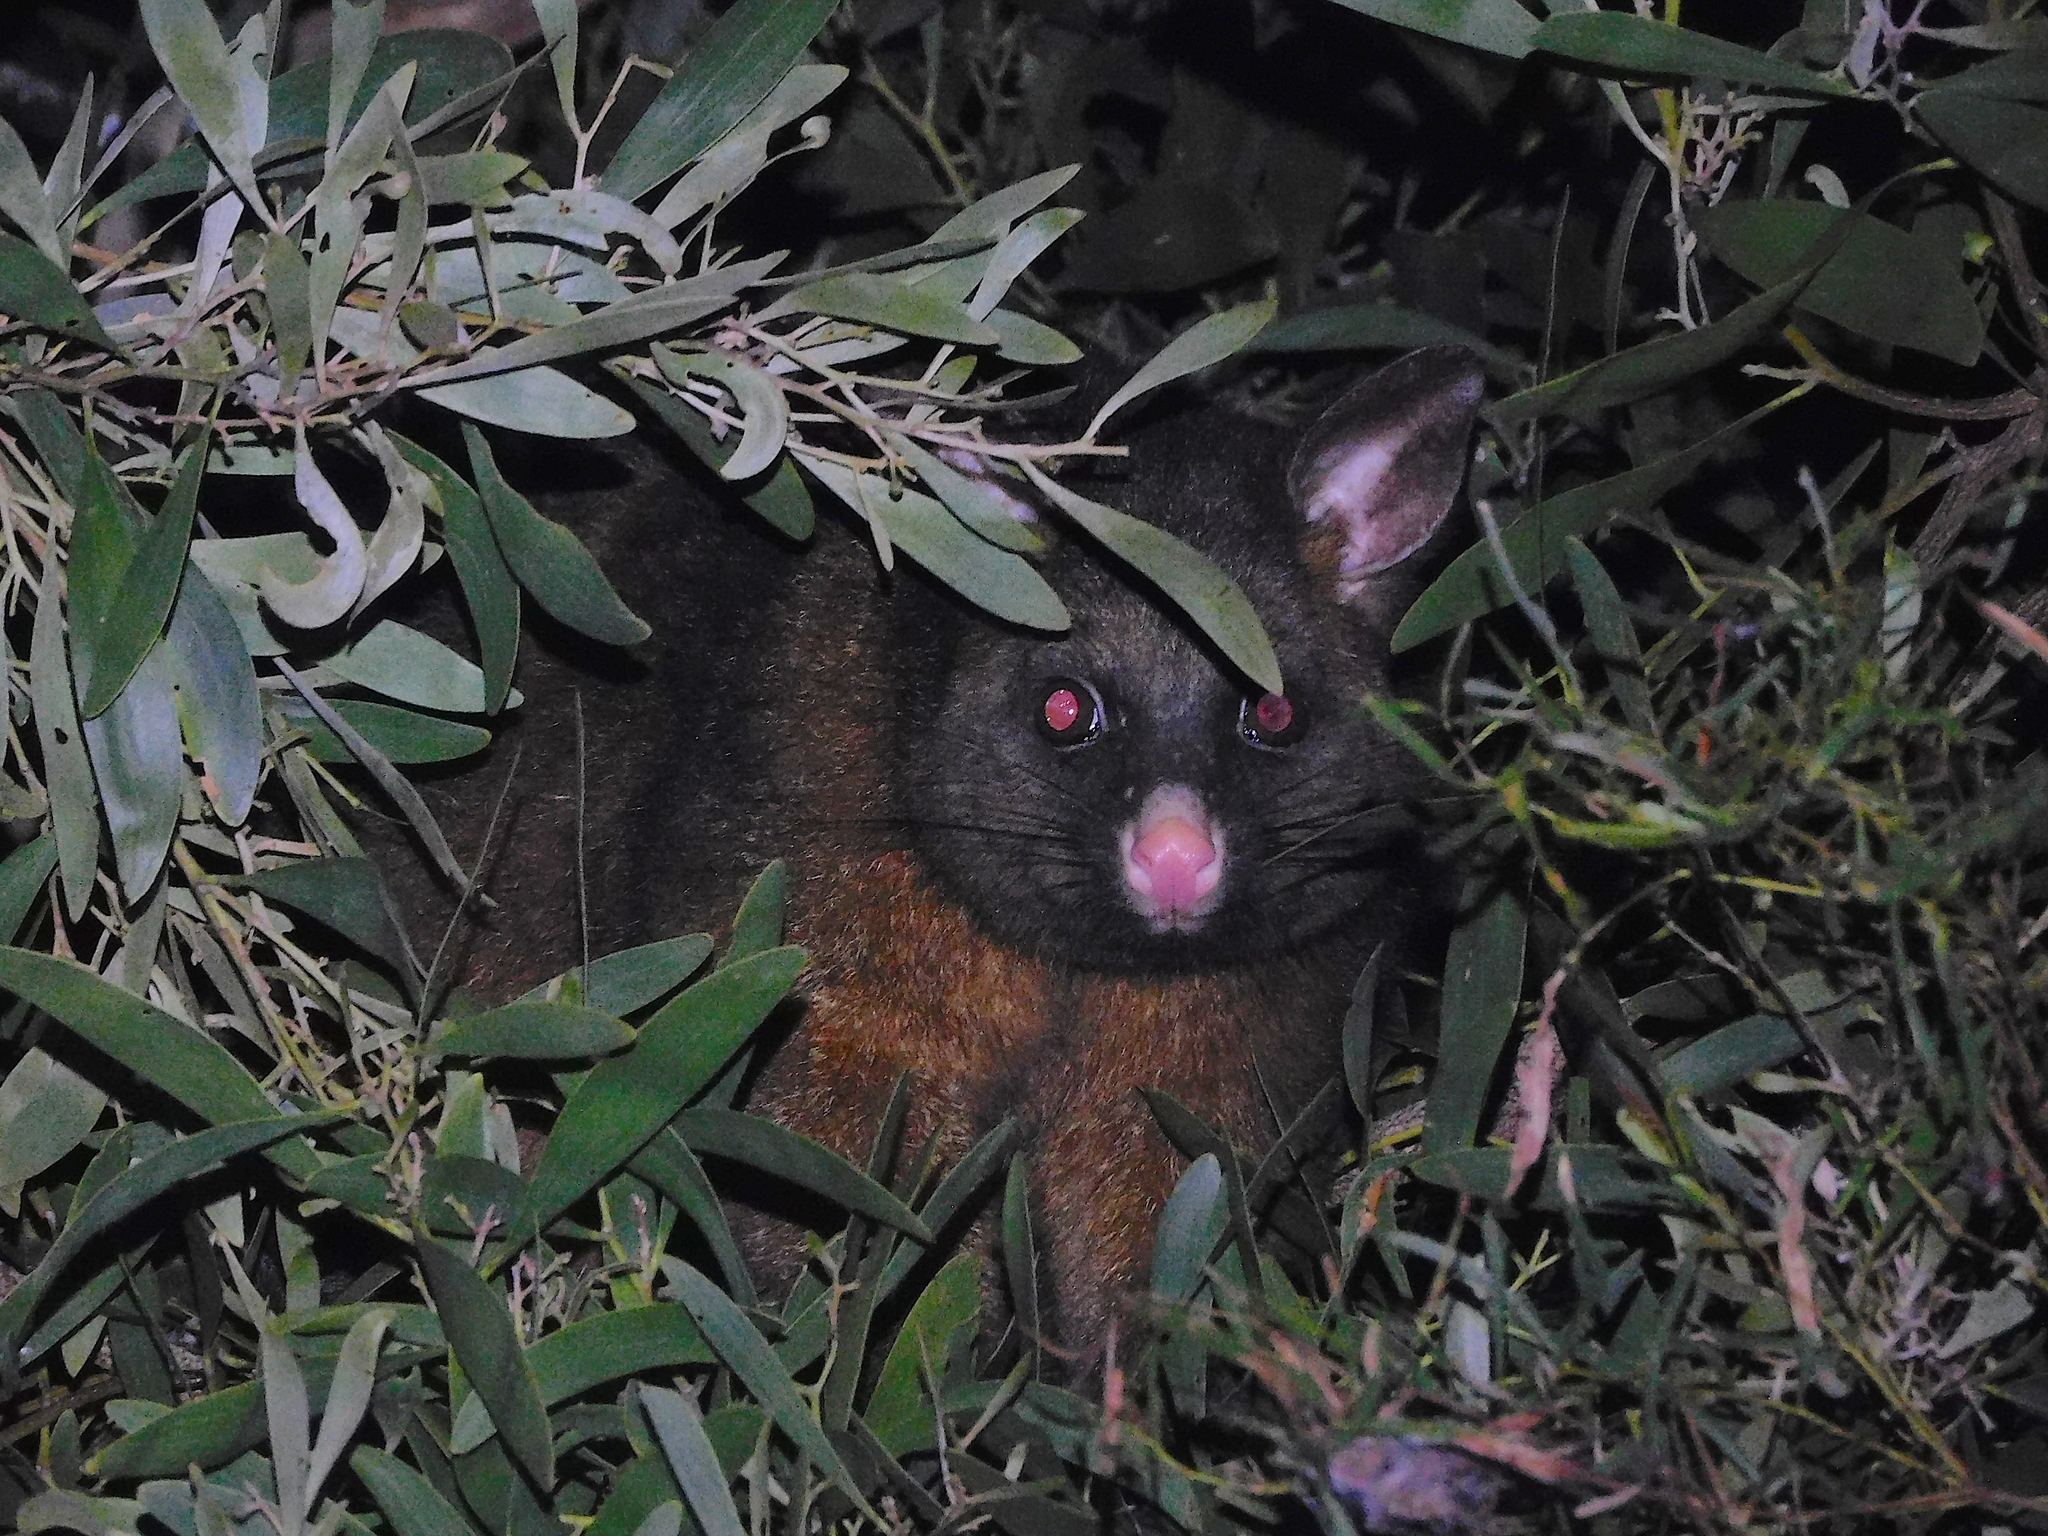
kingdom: Animalia
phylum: Chordata
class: Mammalia
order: Diprotodontia
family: Phalangeridae
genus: Trichosurus
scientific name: Trichosurus vulpecula
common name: Common brushtail
